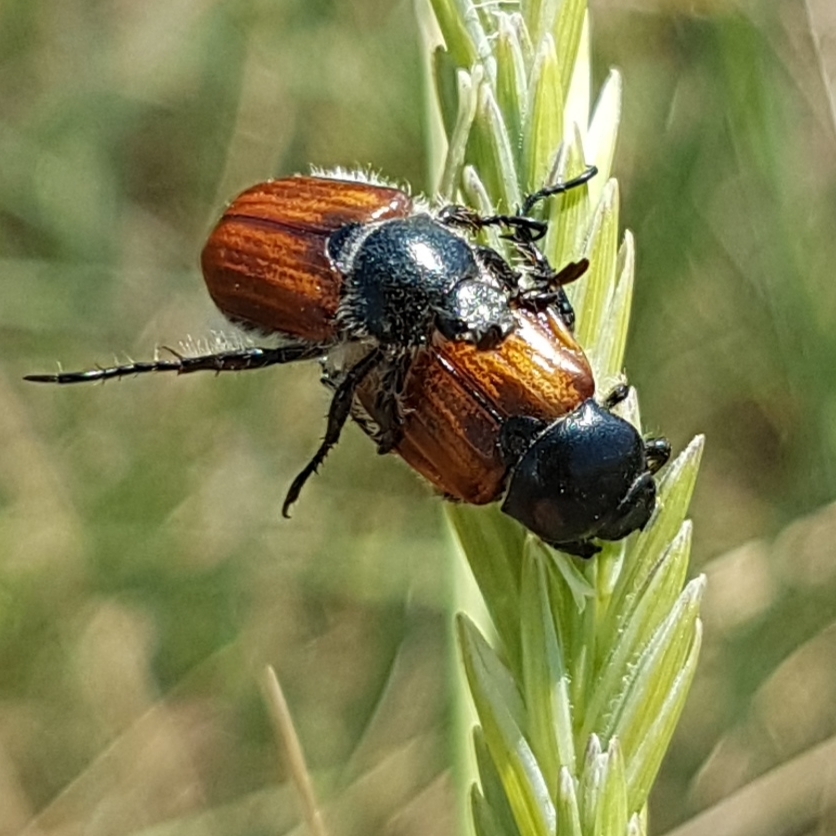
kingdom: Animalia
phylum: Arthropoda
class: Insecta
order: Coleoptera
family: Scarabaeidae
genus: Anisoplia
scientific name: Anisoplia remota
